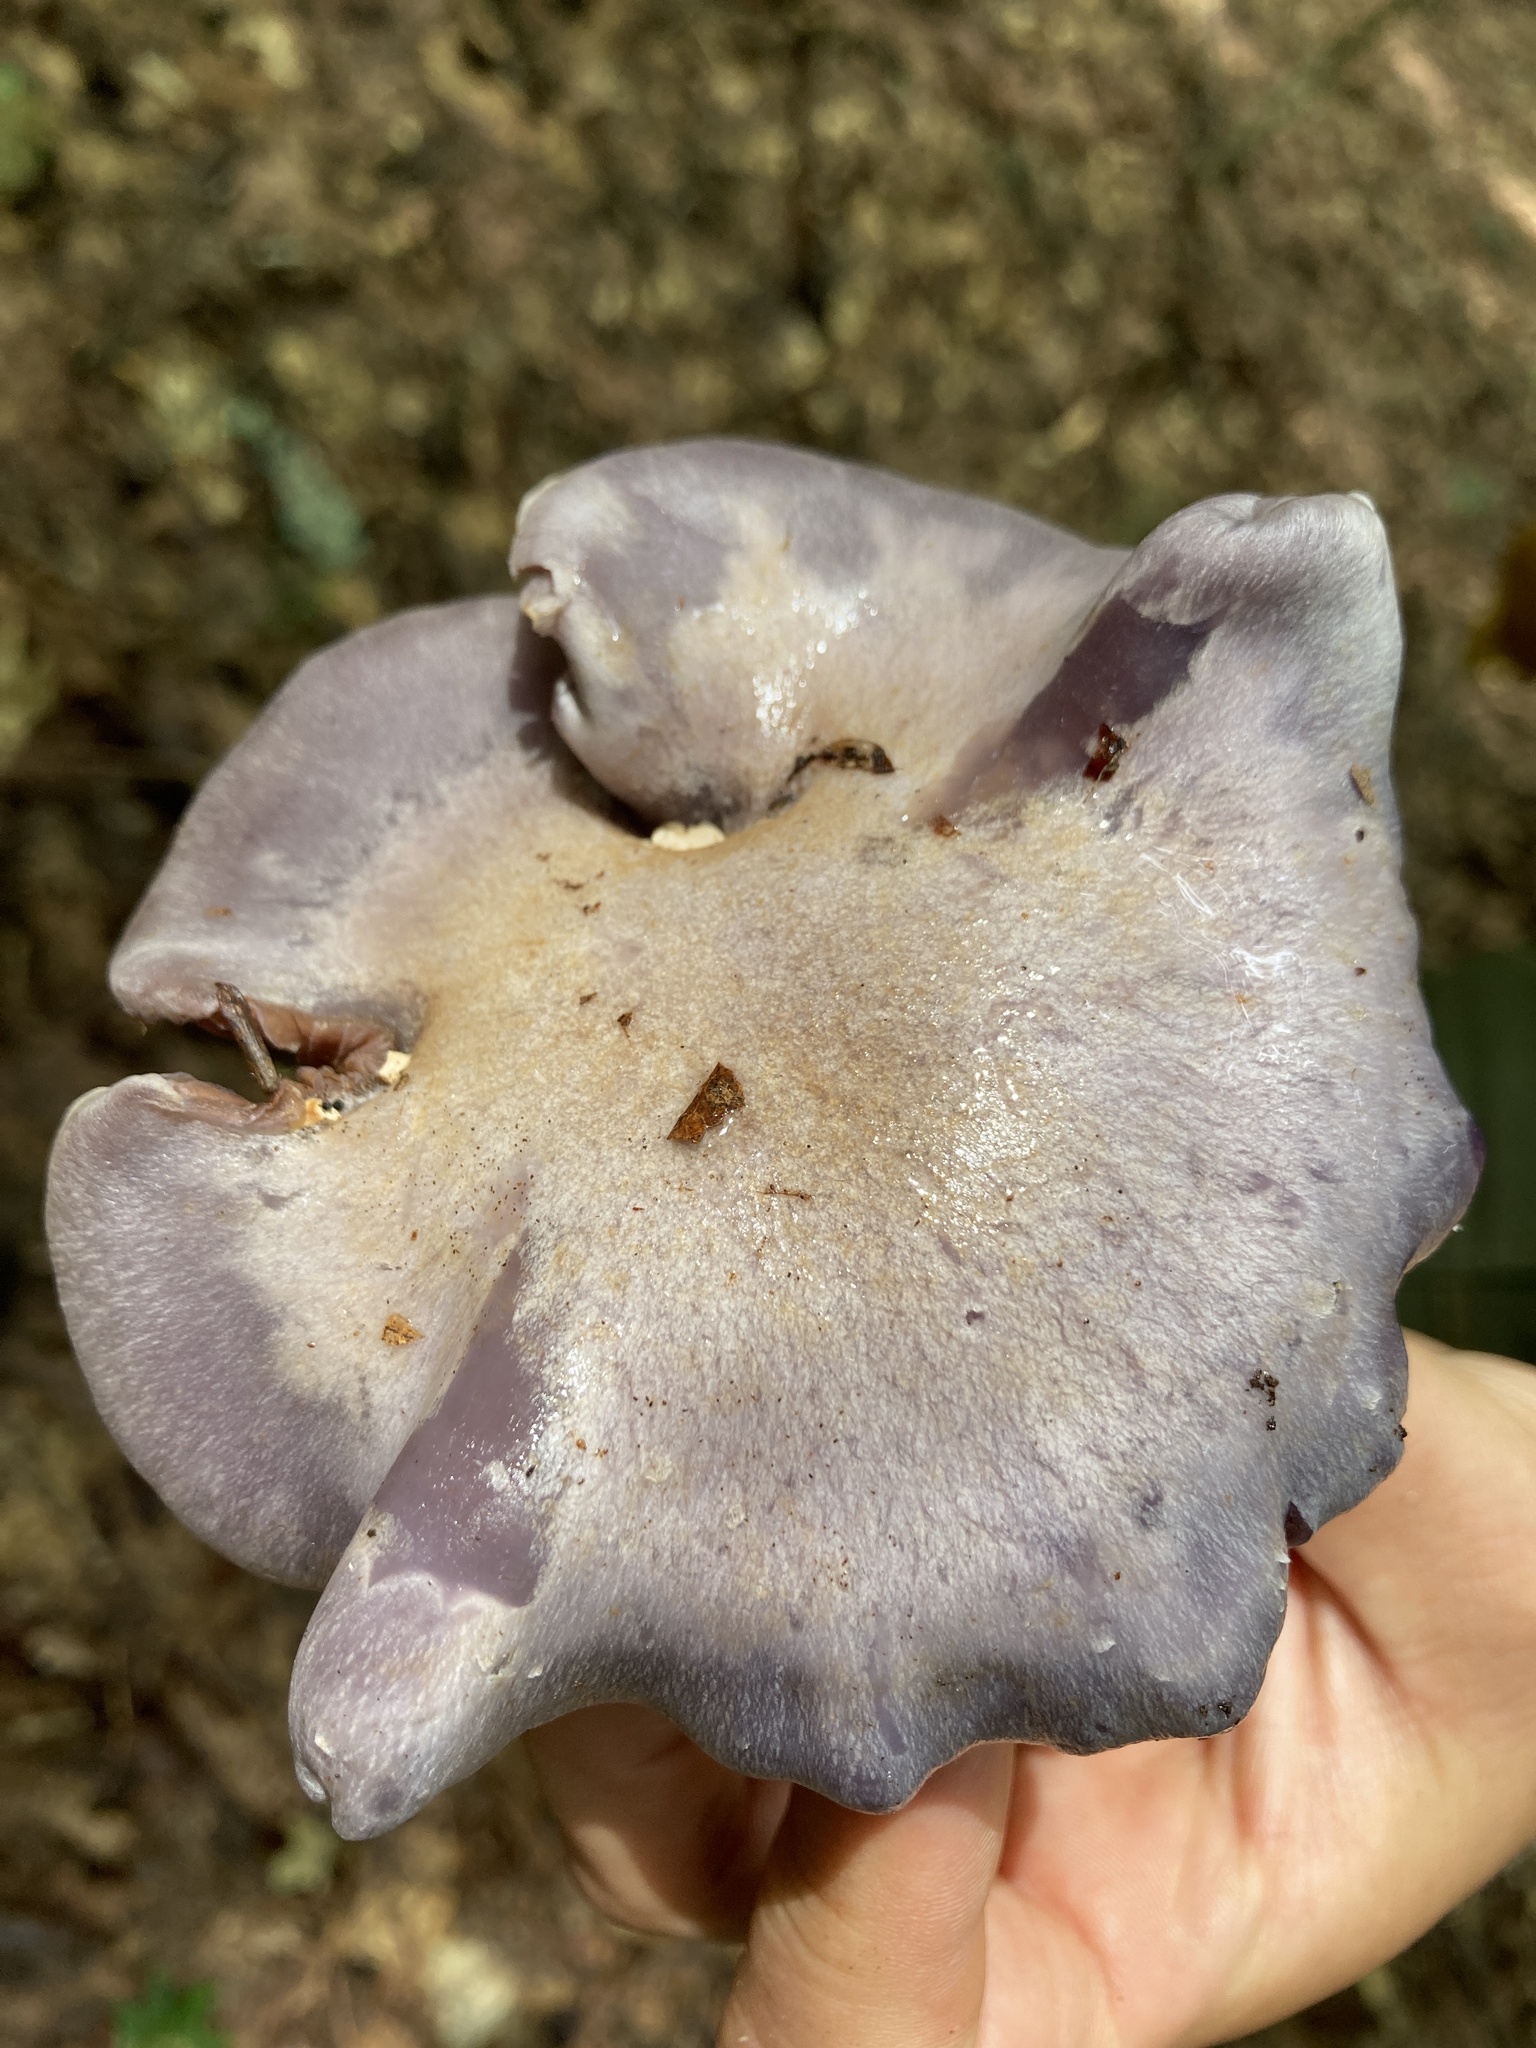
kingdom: Fungi
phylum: Basidiomycota
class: Agaricomycetes
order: Agaricales
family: Cortinariaceae
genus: Cortinarius
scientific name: Cortinarius alboviolaceus
